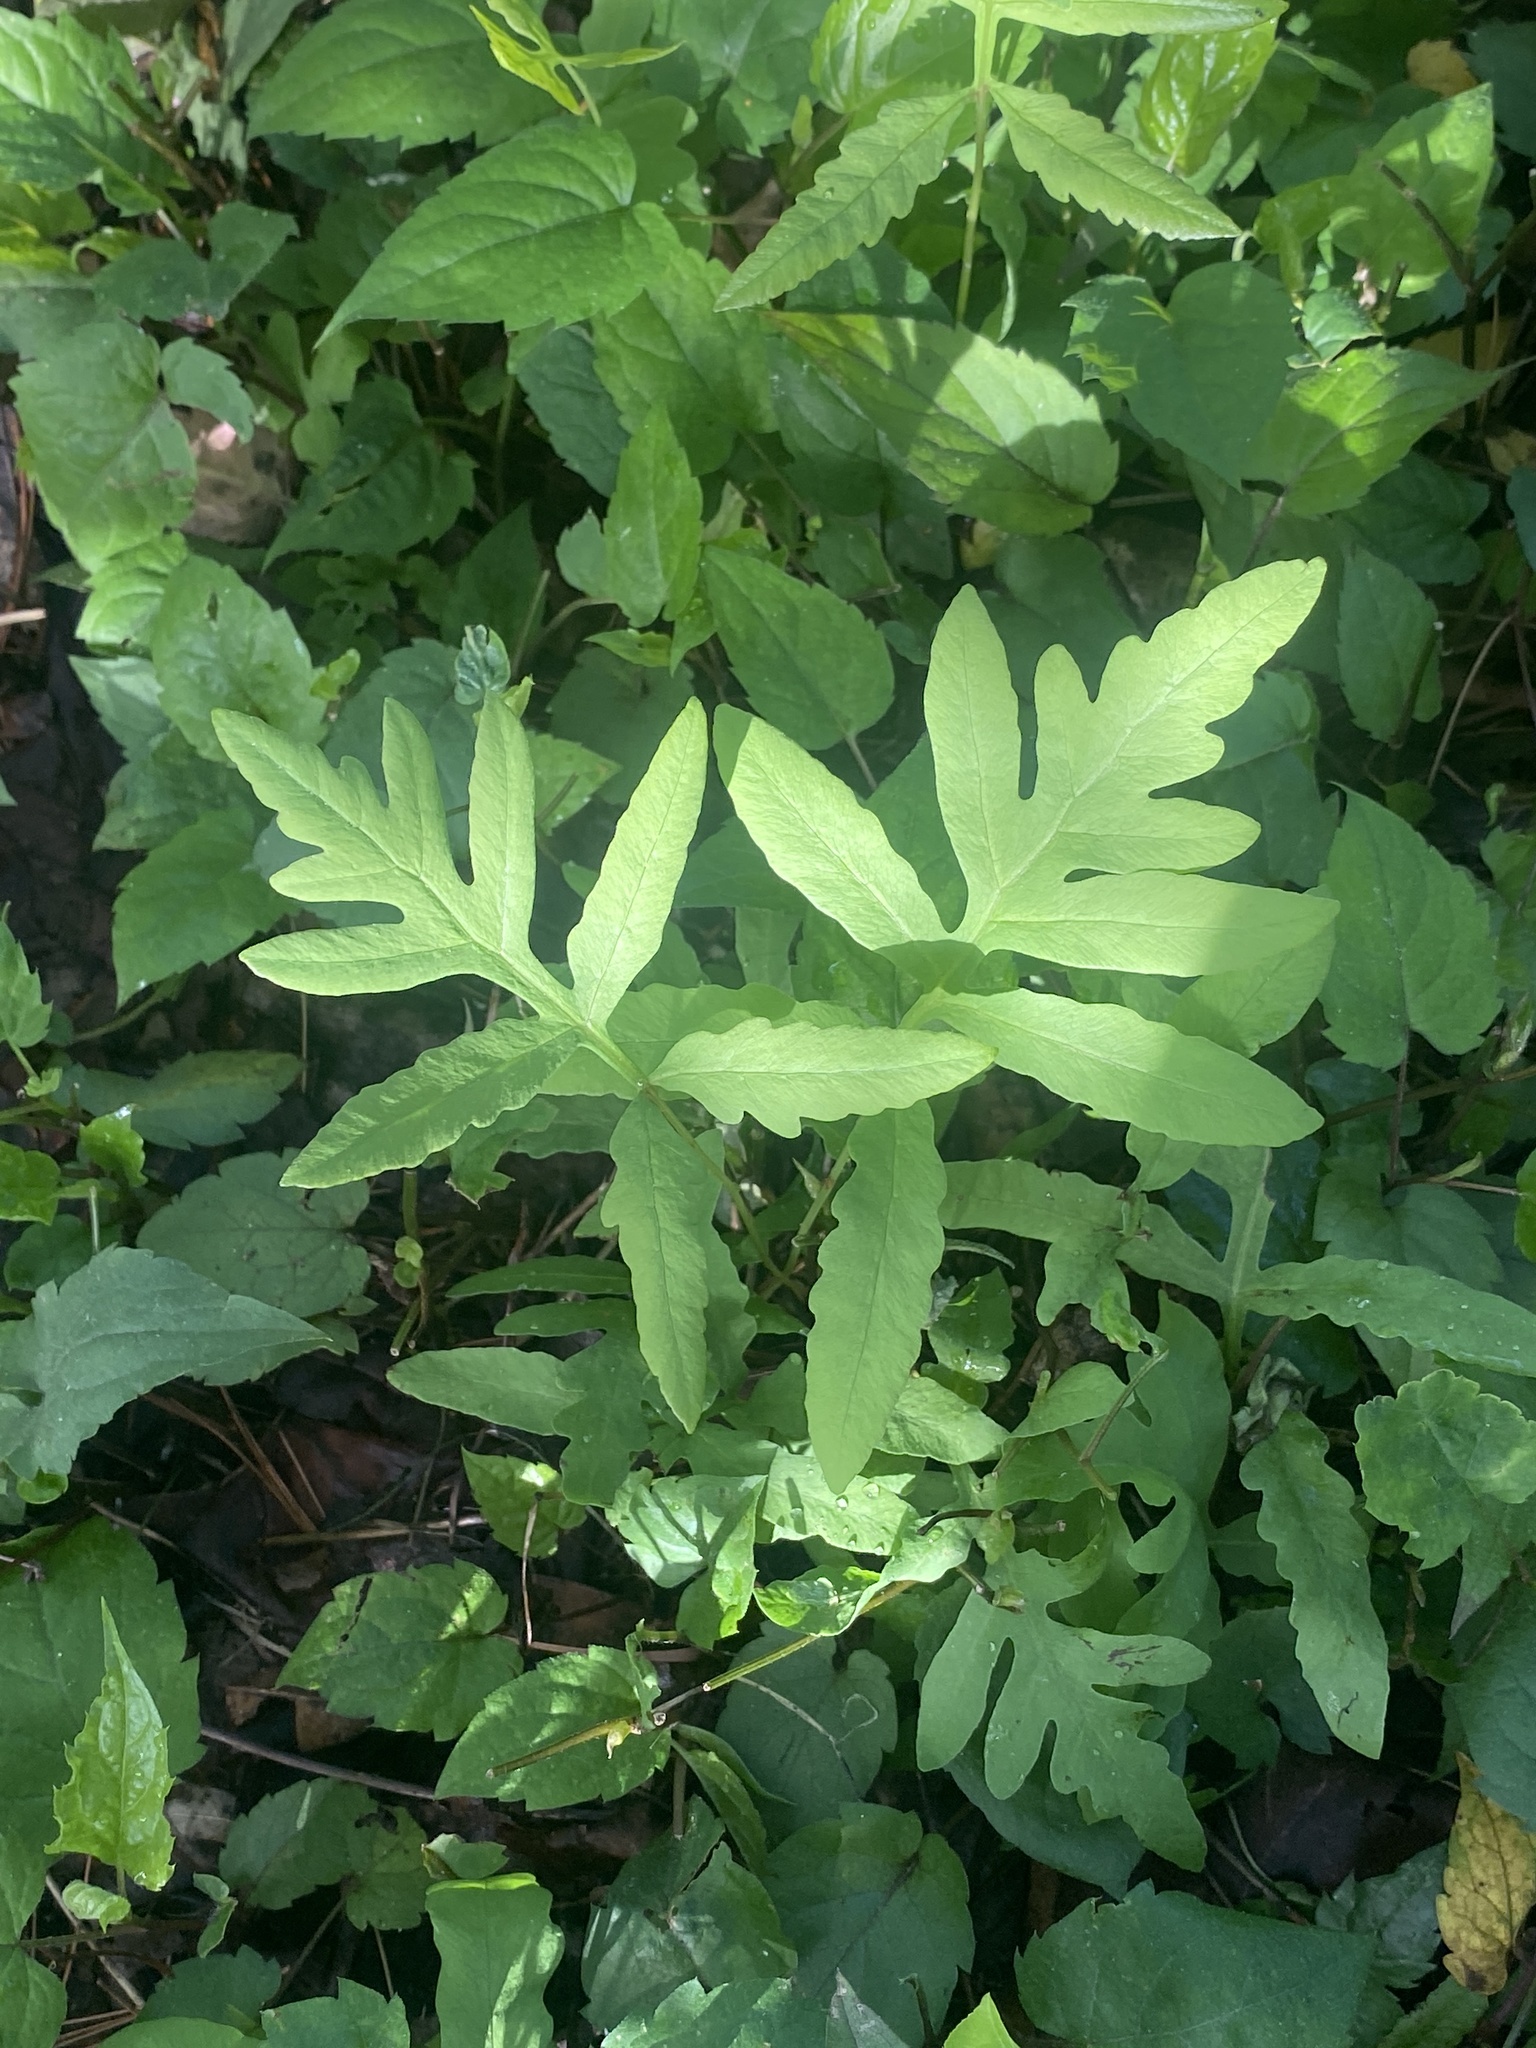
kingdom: Plantae
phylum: Tracheophyta
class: Polypodiopsida
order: Polypodiales
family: Onocleaceae
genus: Onoclea
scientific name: Onoclea sensibilis
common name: Sensitive fern
